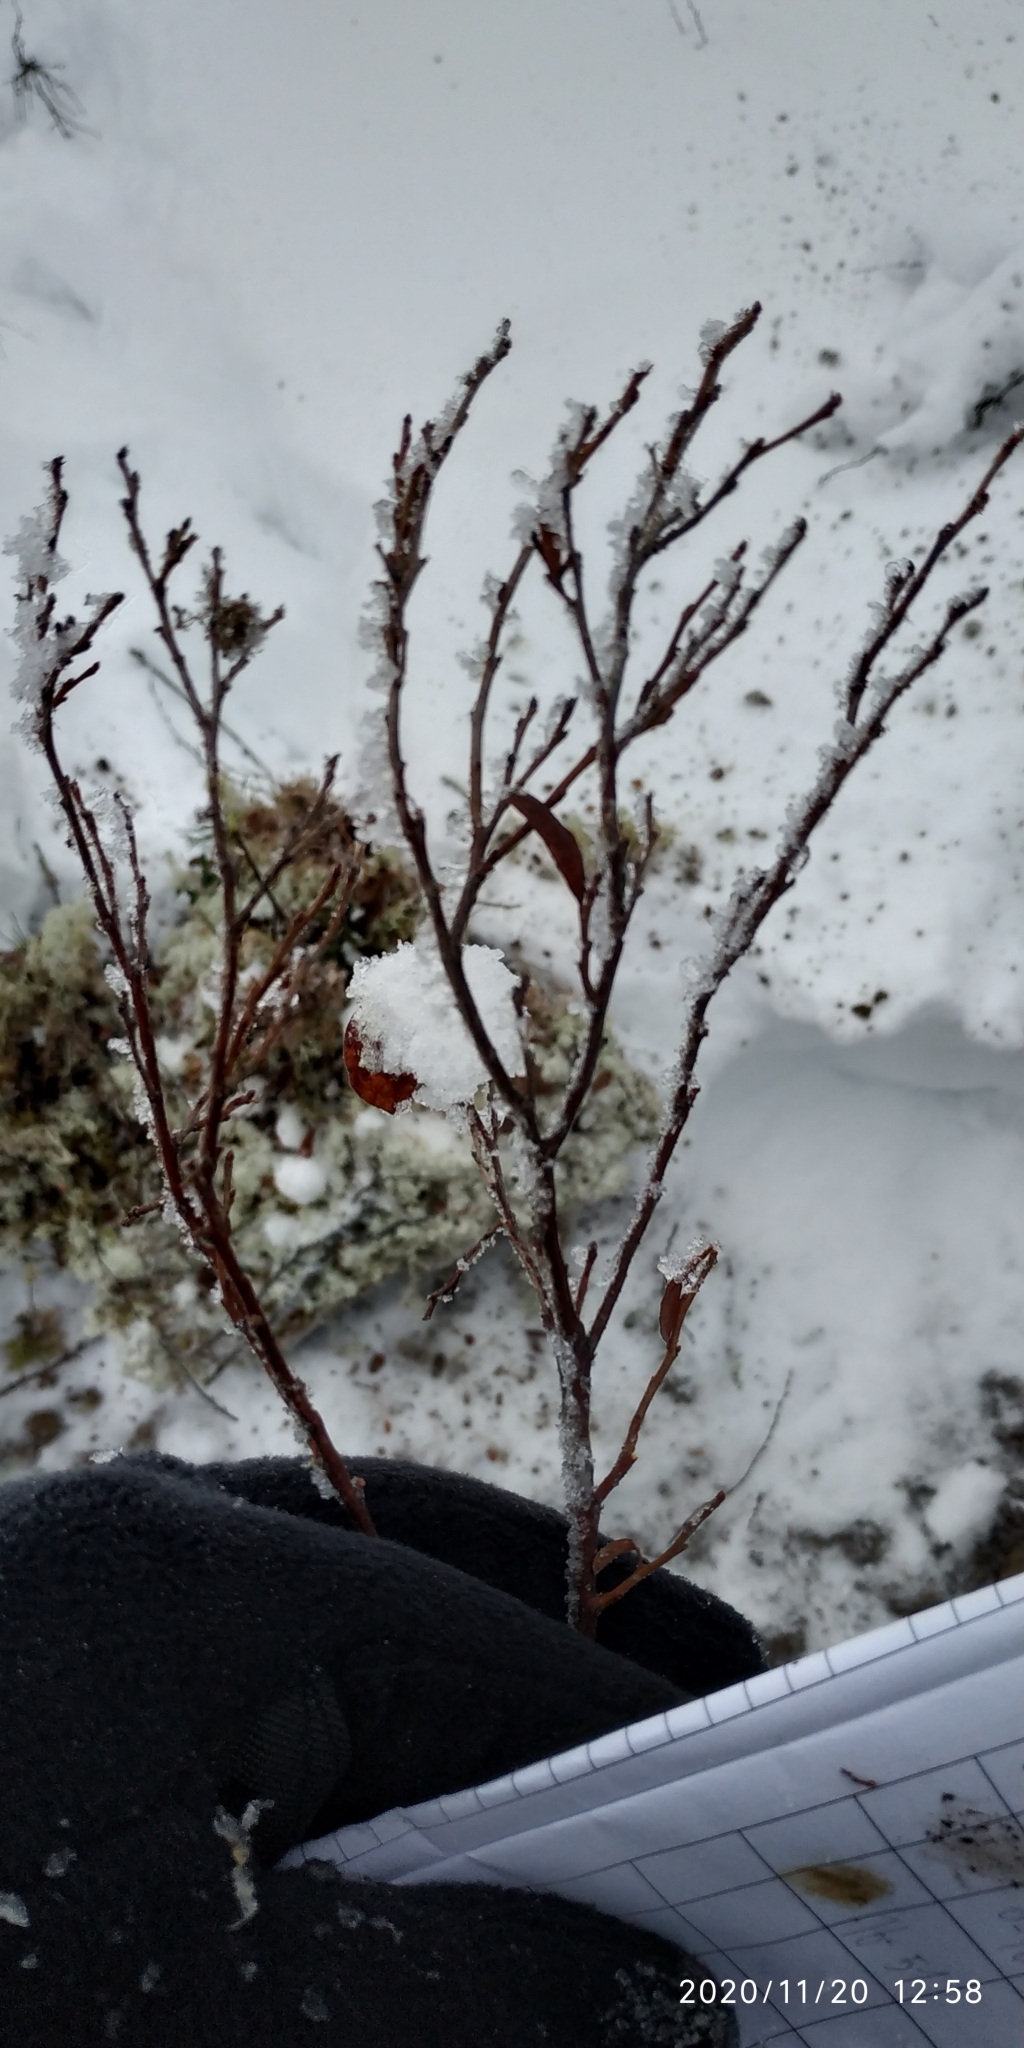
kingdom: Plantae
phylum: Tracheophyta
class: Magnoliopsida
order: Ericales
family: Ericaceae
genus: Chamaedaphne
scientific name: Chamaedaphne calyculata
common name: Leatherleaf
